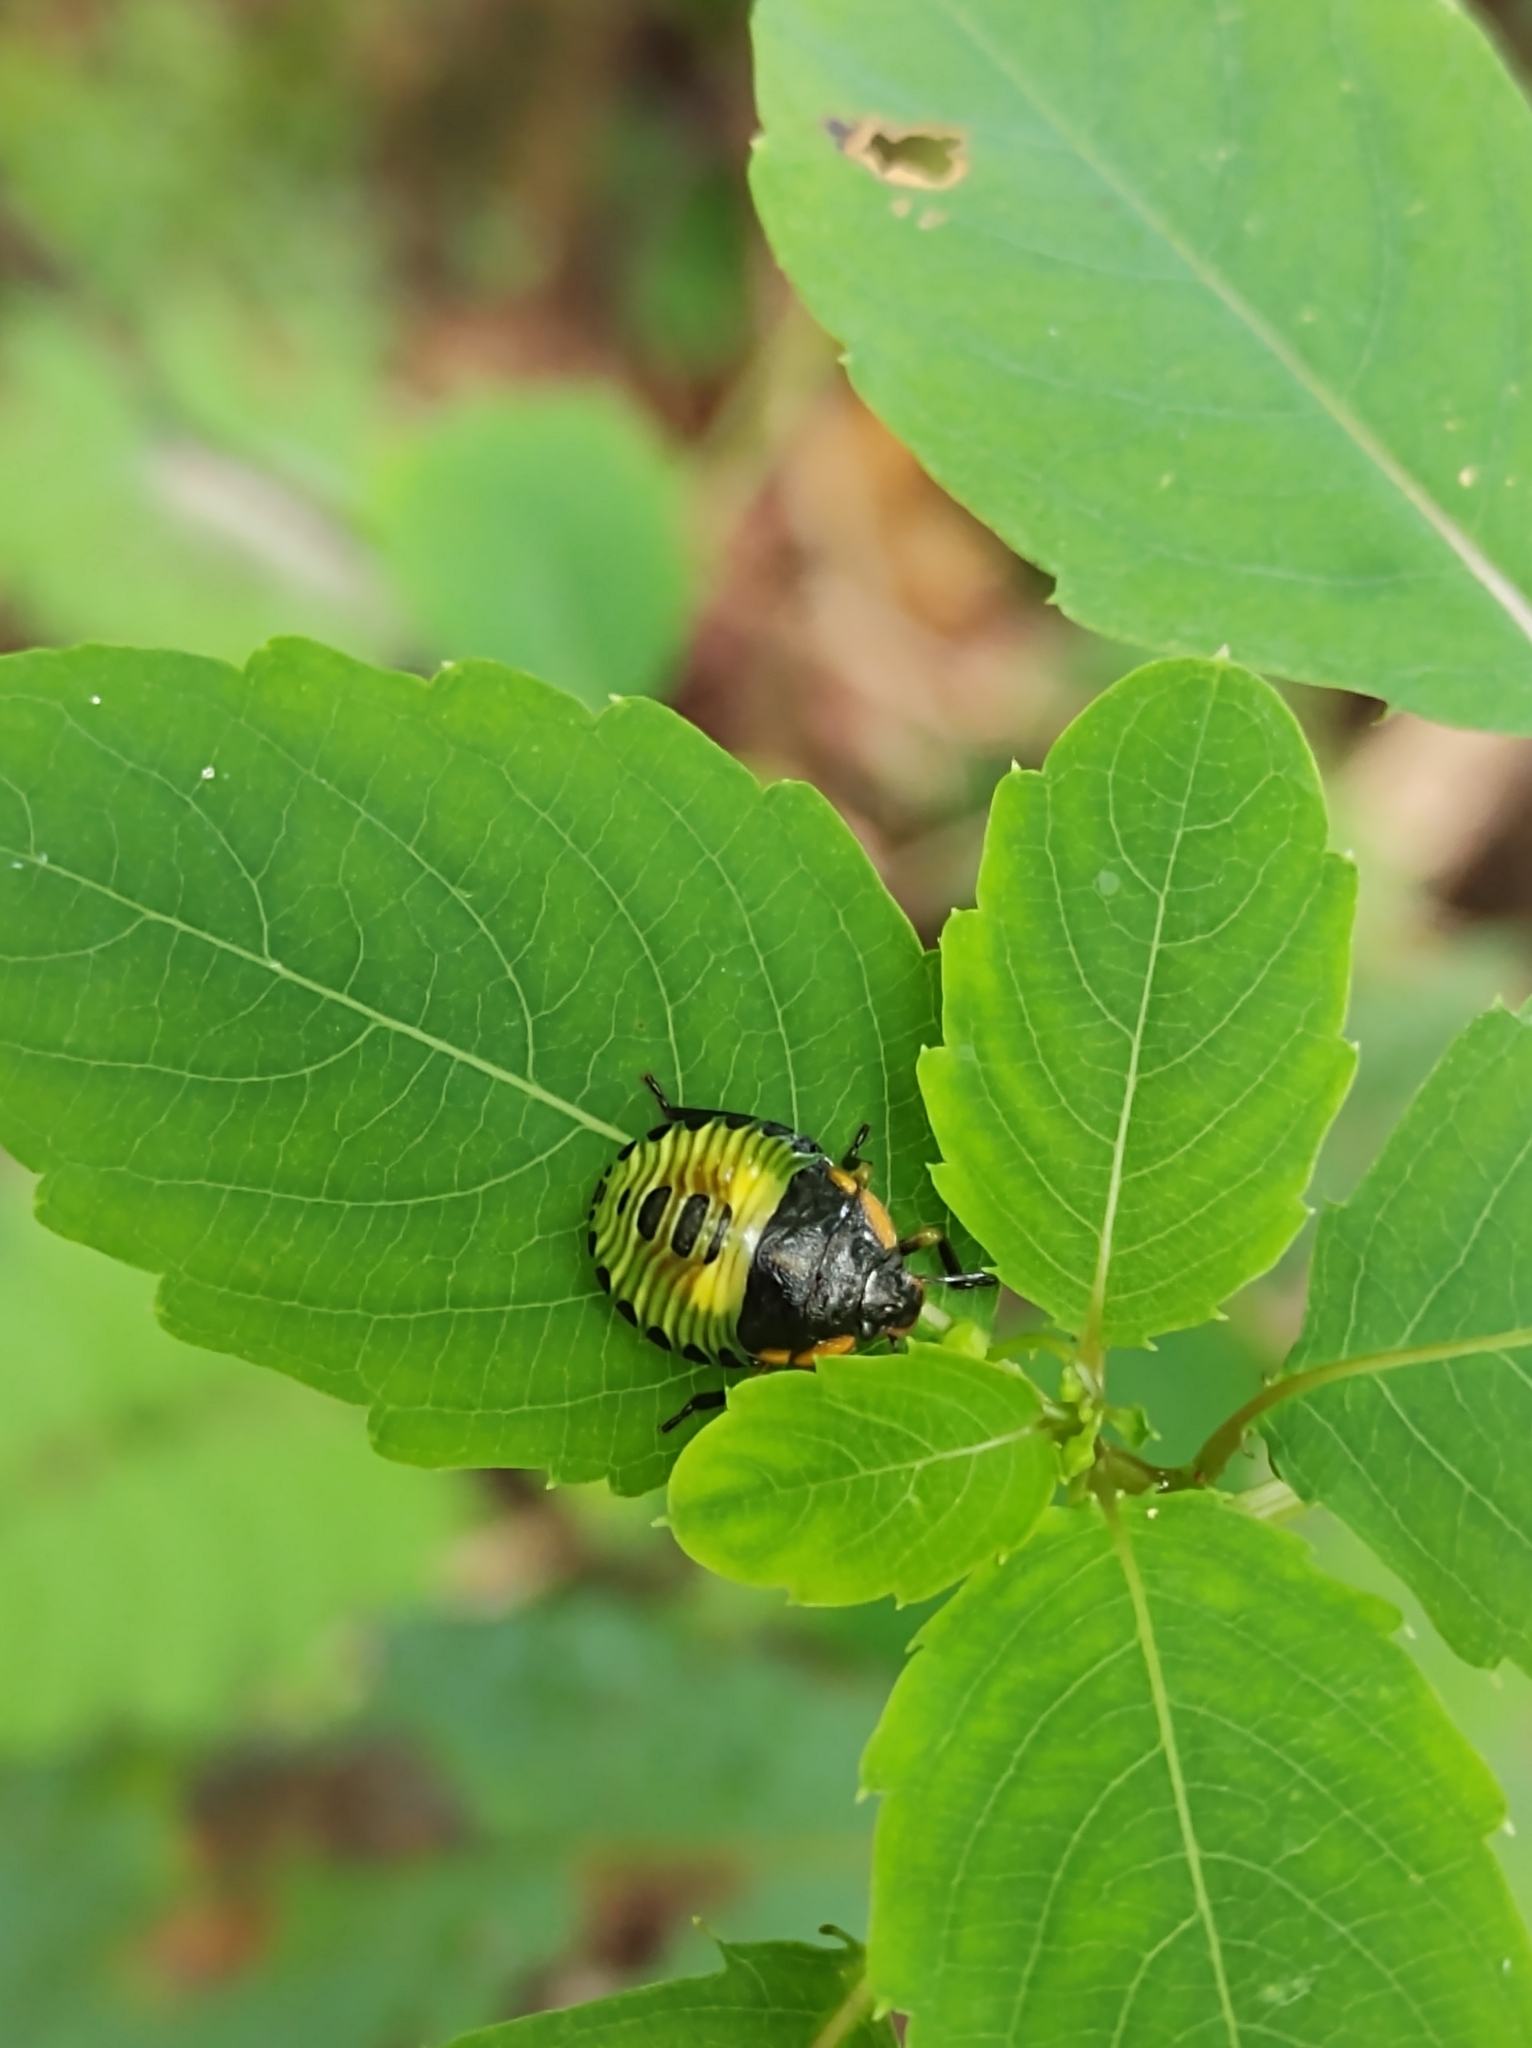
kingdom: Animalia
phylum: Arthropoda
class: Insecta
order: Hemiptera
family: Pentatomidae
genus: Chinavia
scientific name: Chinavia hilaris
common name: Green stink bug
